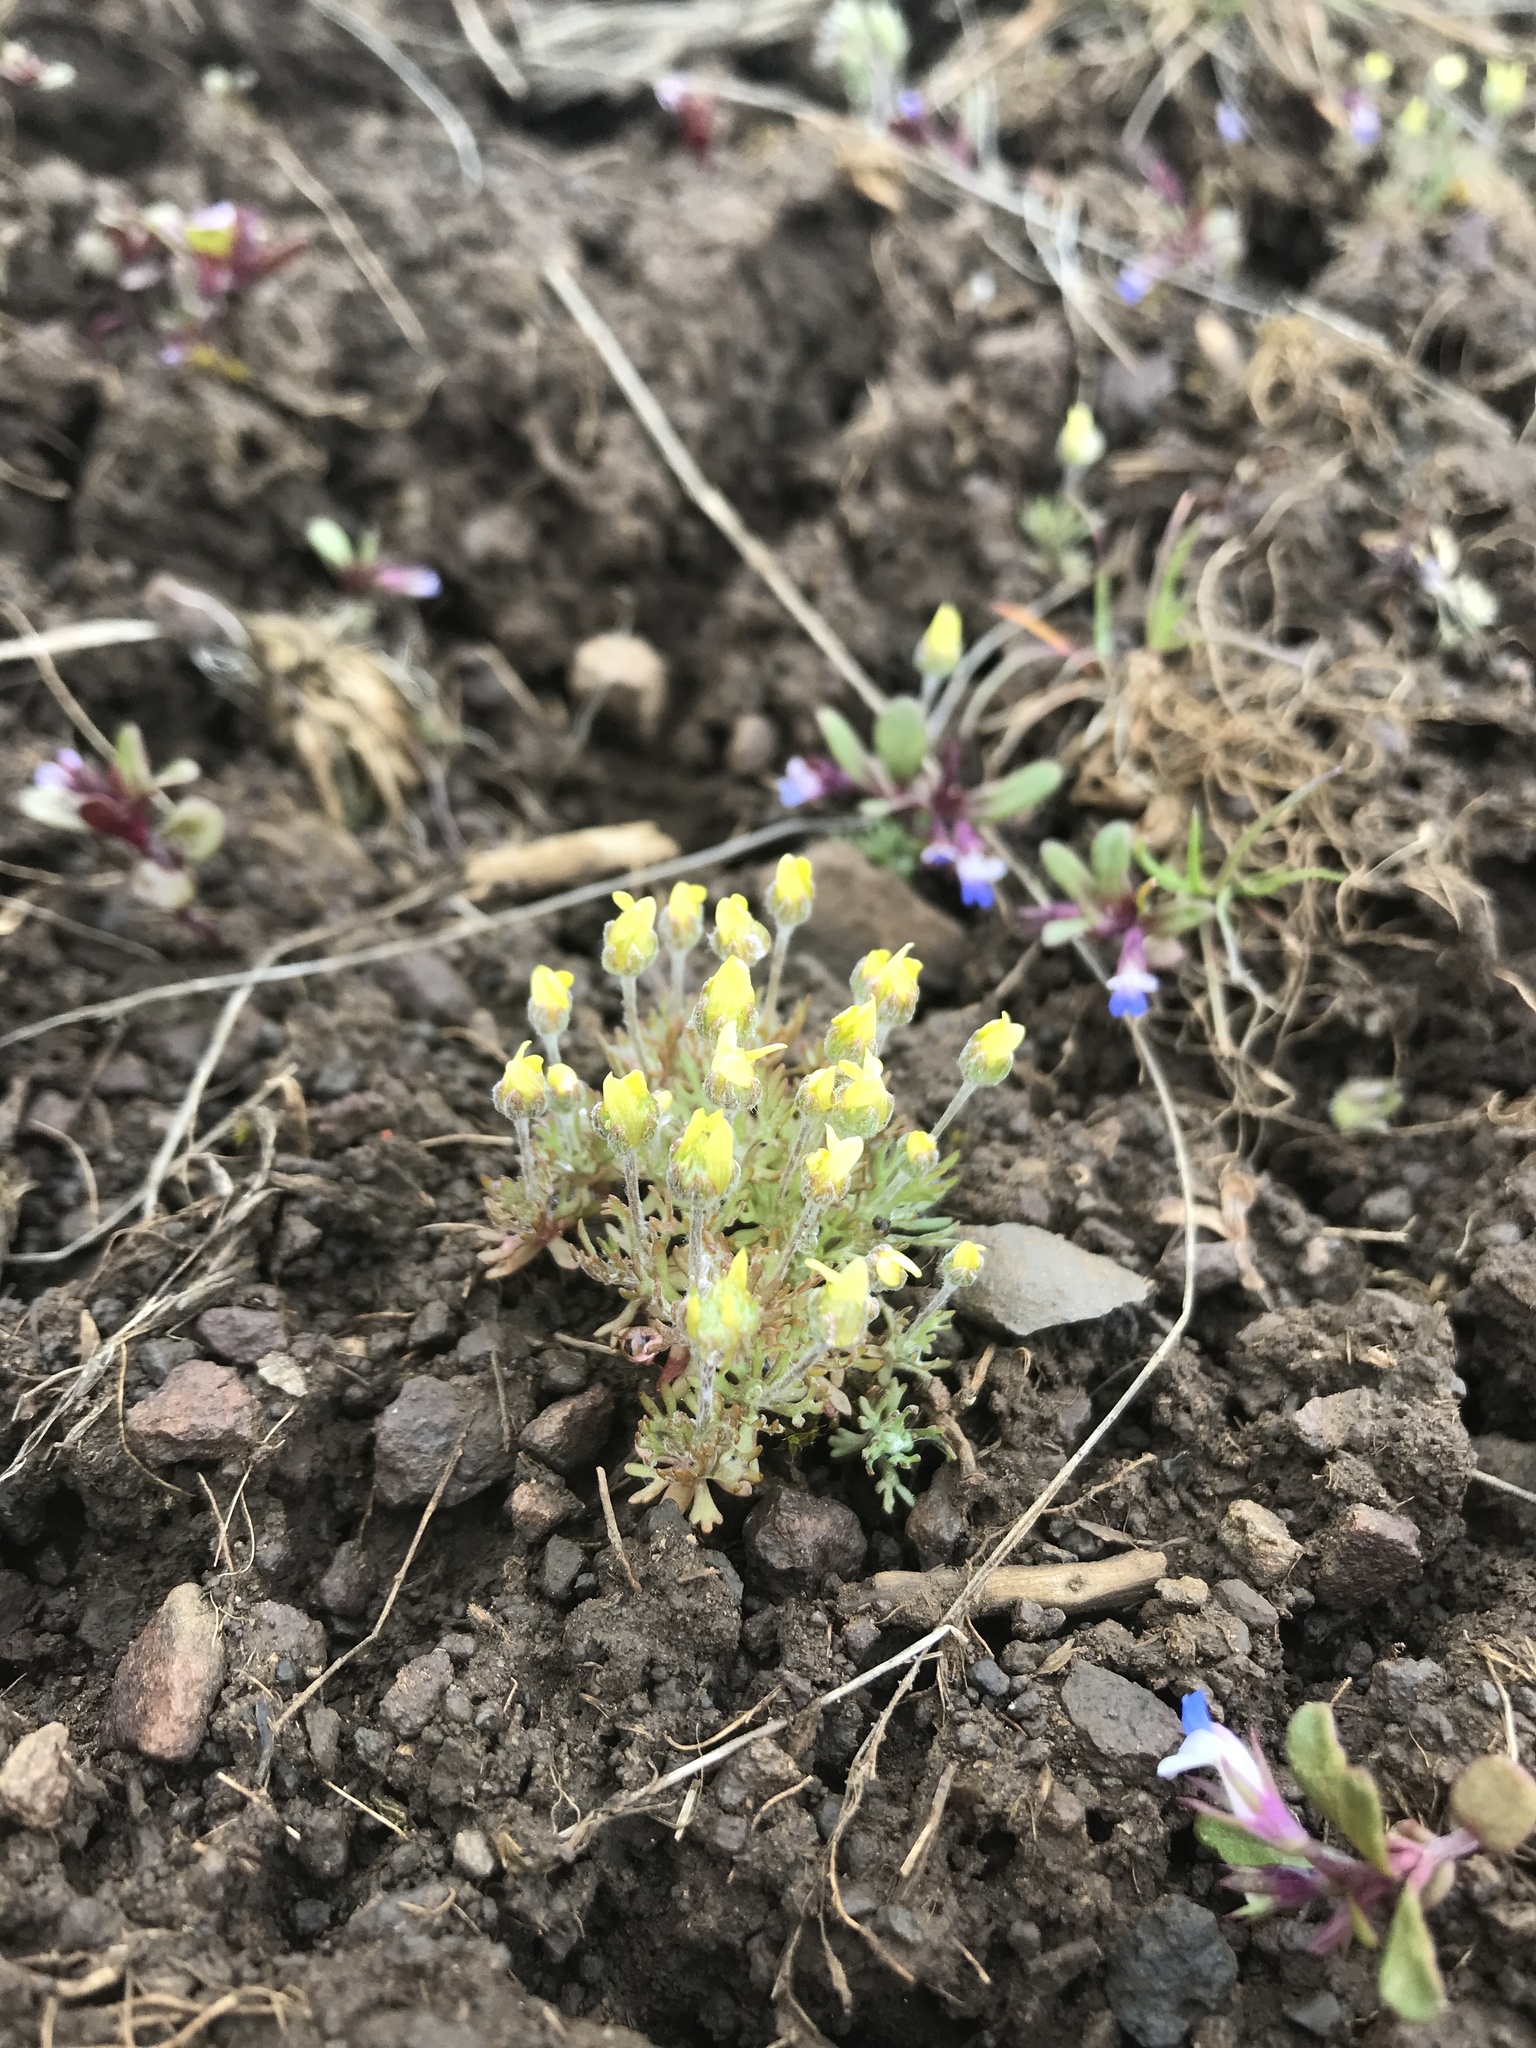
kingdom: Plantae
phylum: Tracheophyta
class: Magnoliopsida
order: Ranunculales
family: Ranunculaceae
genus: Ceratocephala
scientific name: Ceratocephala orthoceras
